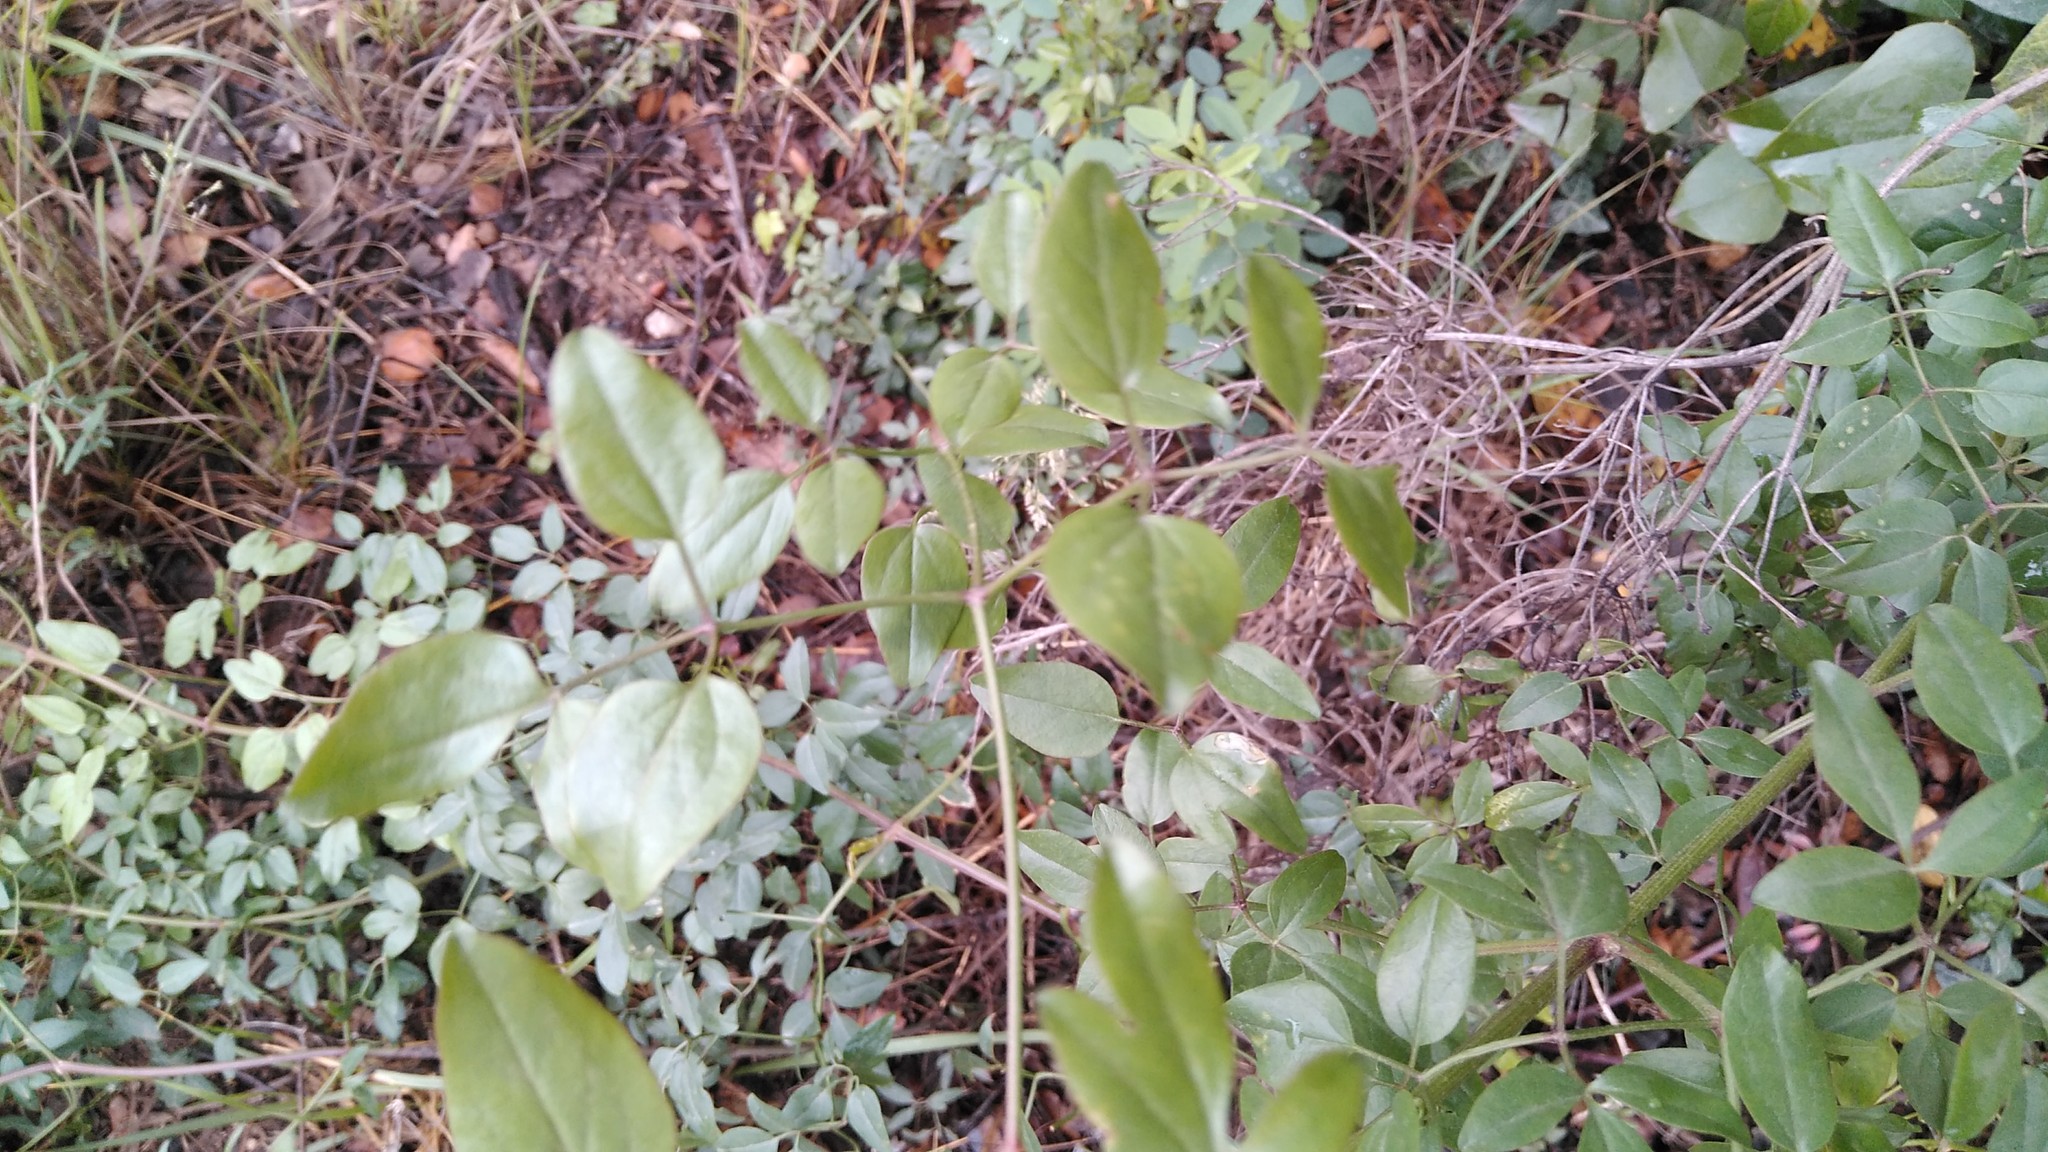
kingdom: Plantae
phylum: Tracheophyta
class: Magnoliopsida
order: Ranunculales
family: Ranunculaceae
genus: Clematis
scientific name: Clematis flammula
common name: Virgin's-bower
